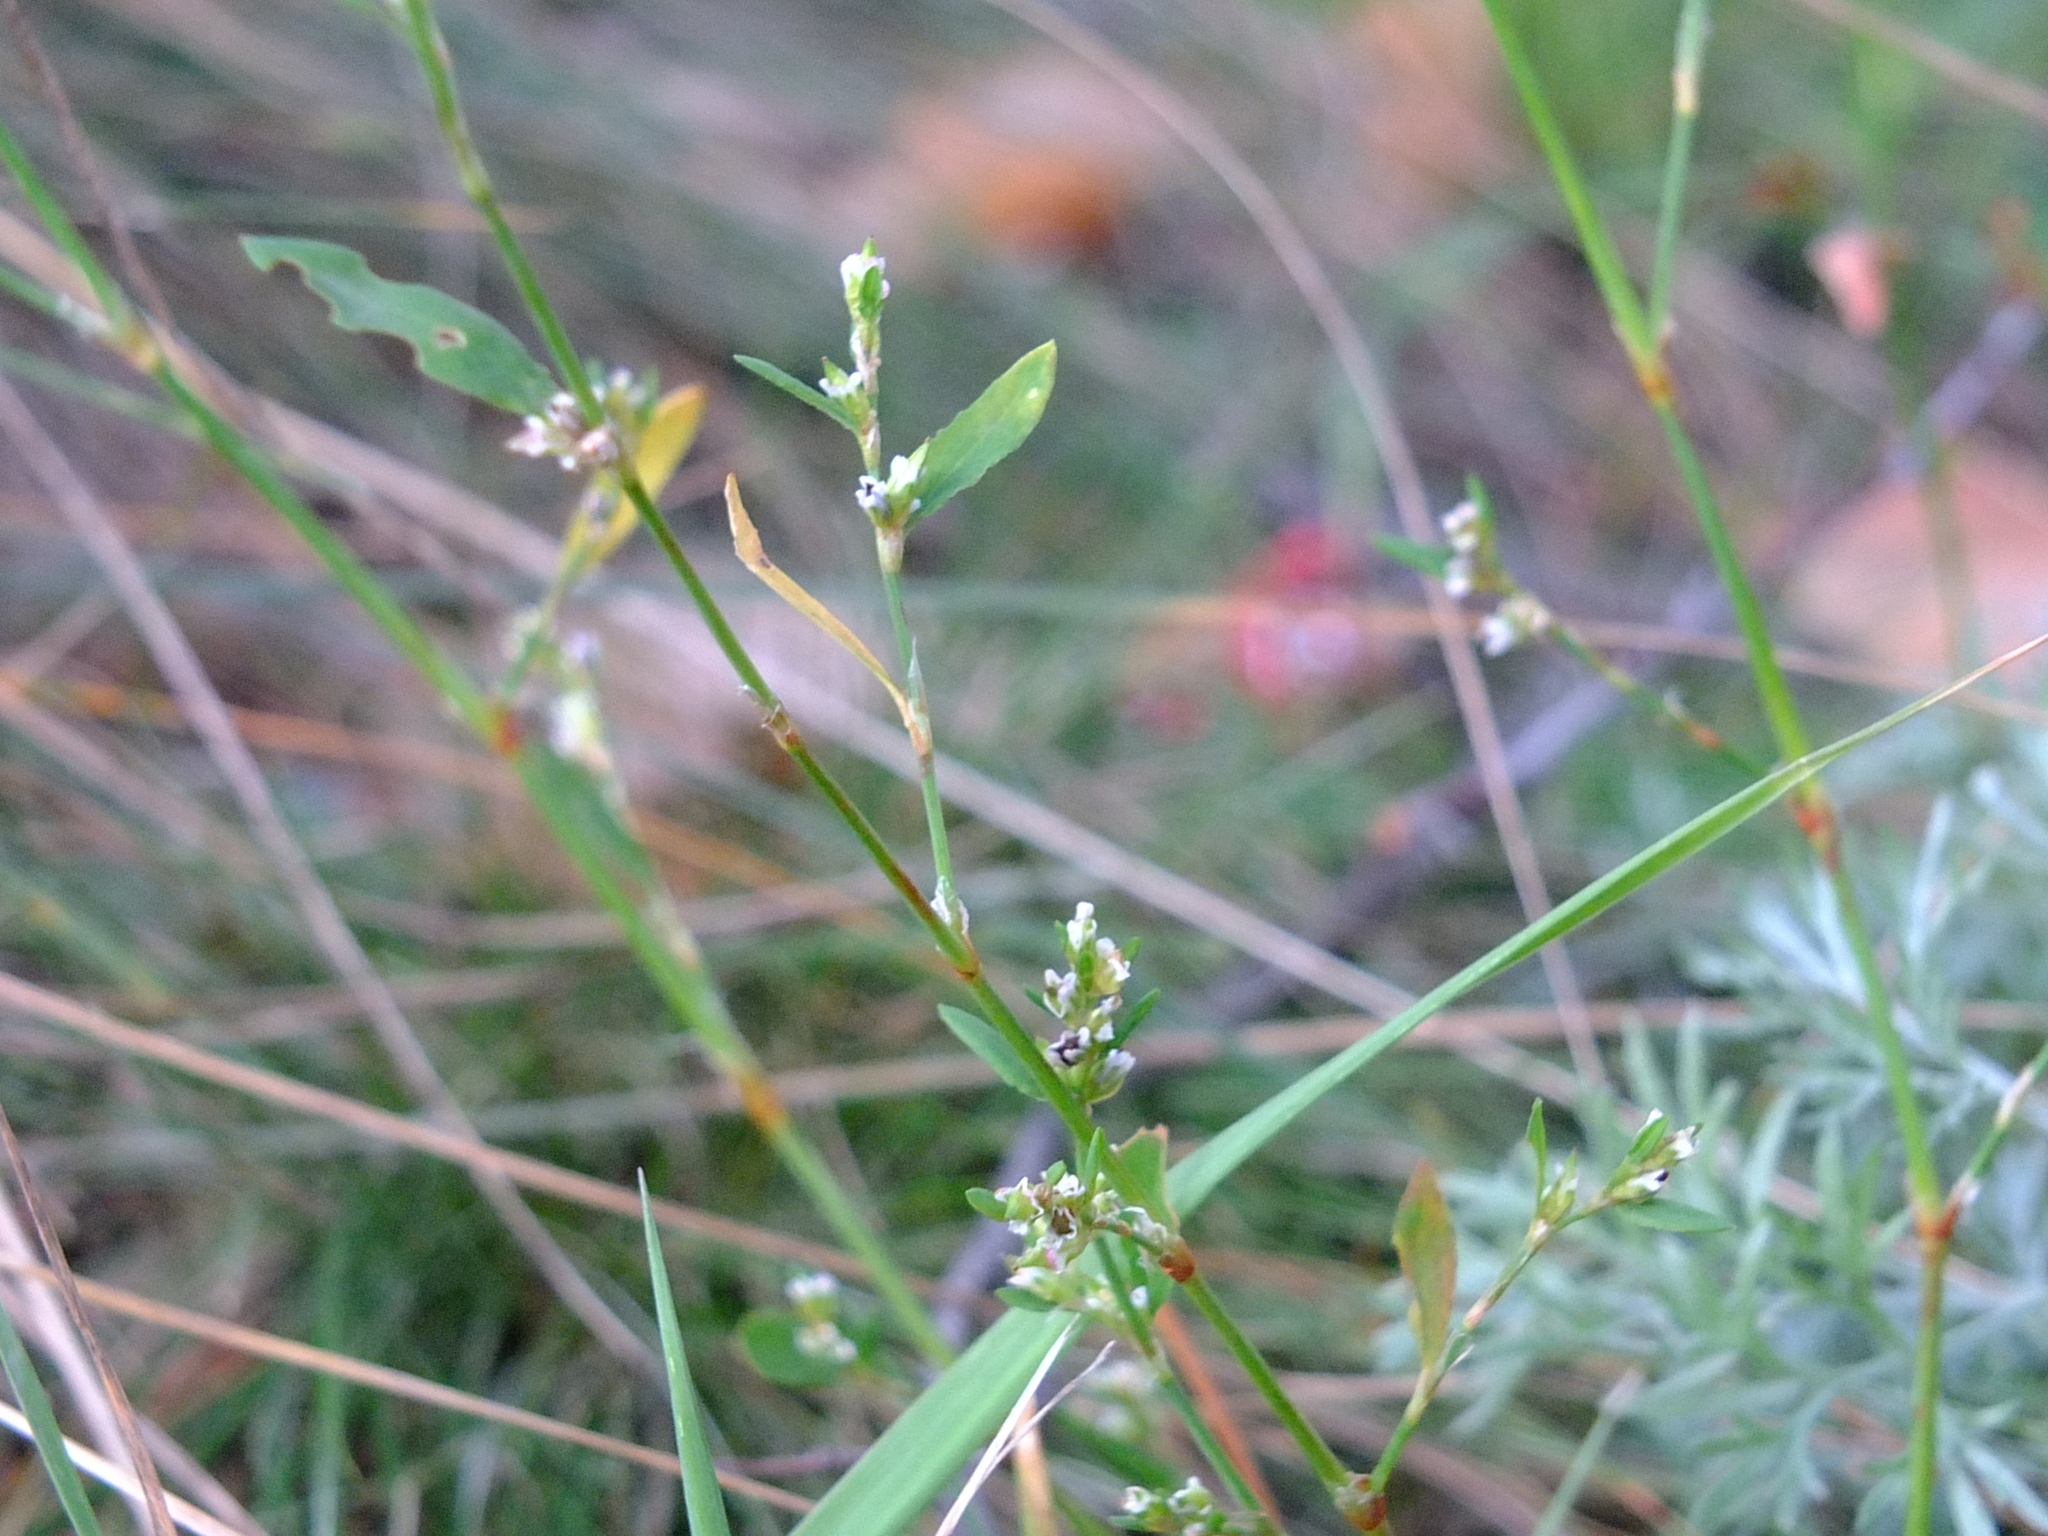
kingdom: Plantae
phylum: Tracheophyta
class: Magnoliopsida
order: Caryophyllales
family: Polygonaceae
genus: Polygonum
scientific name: Polygonum
